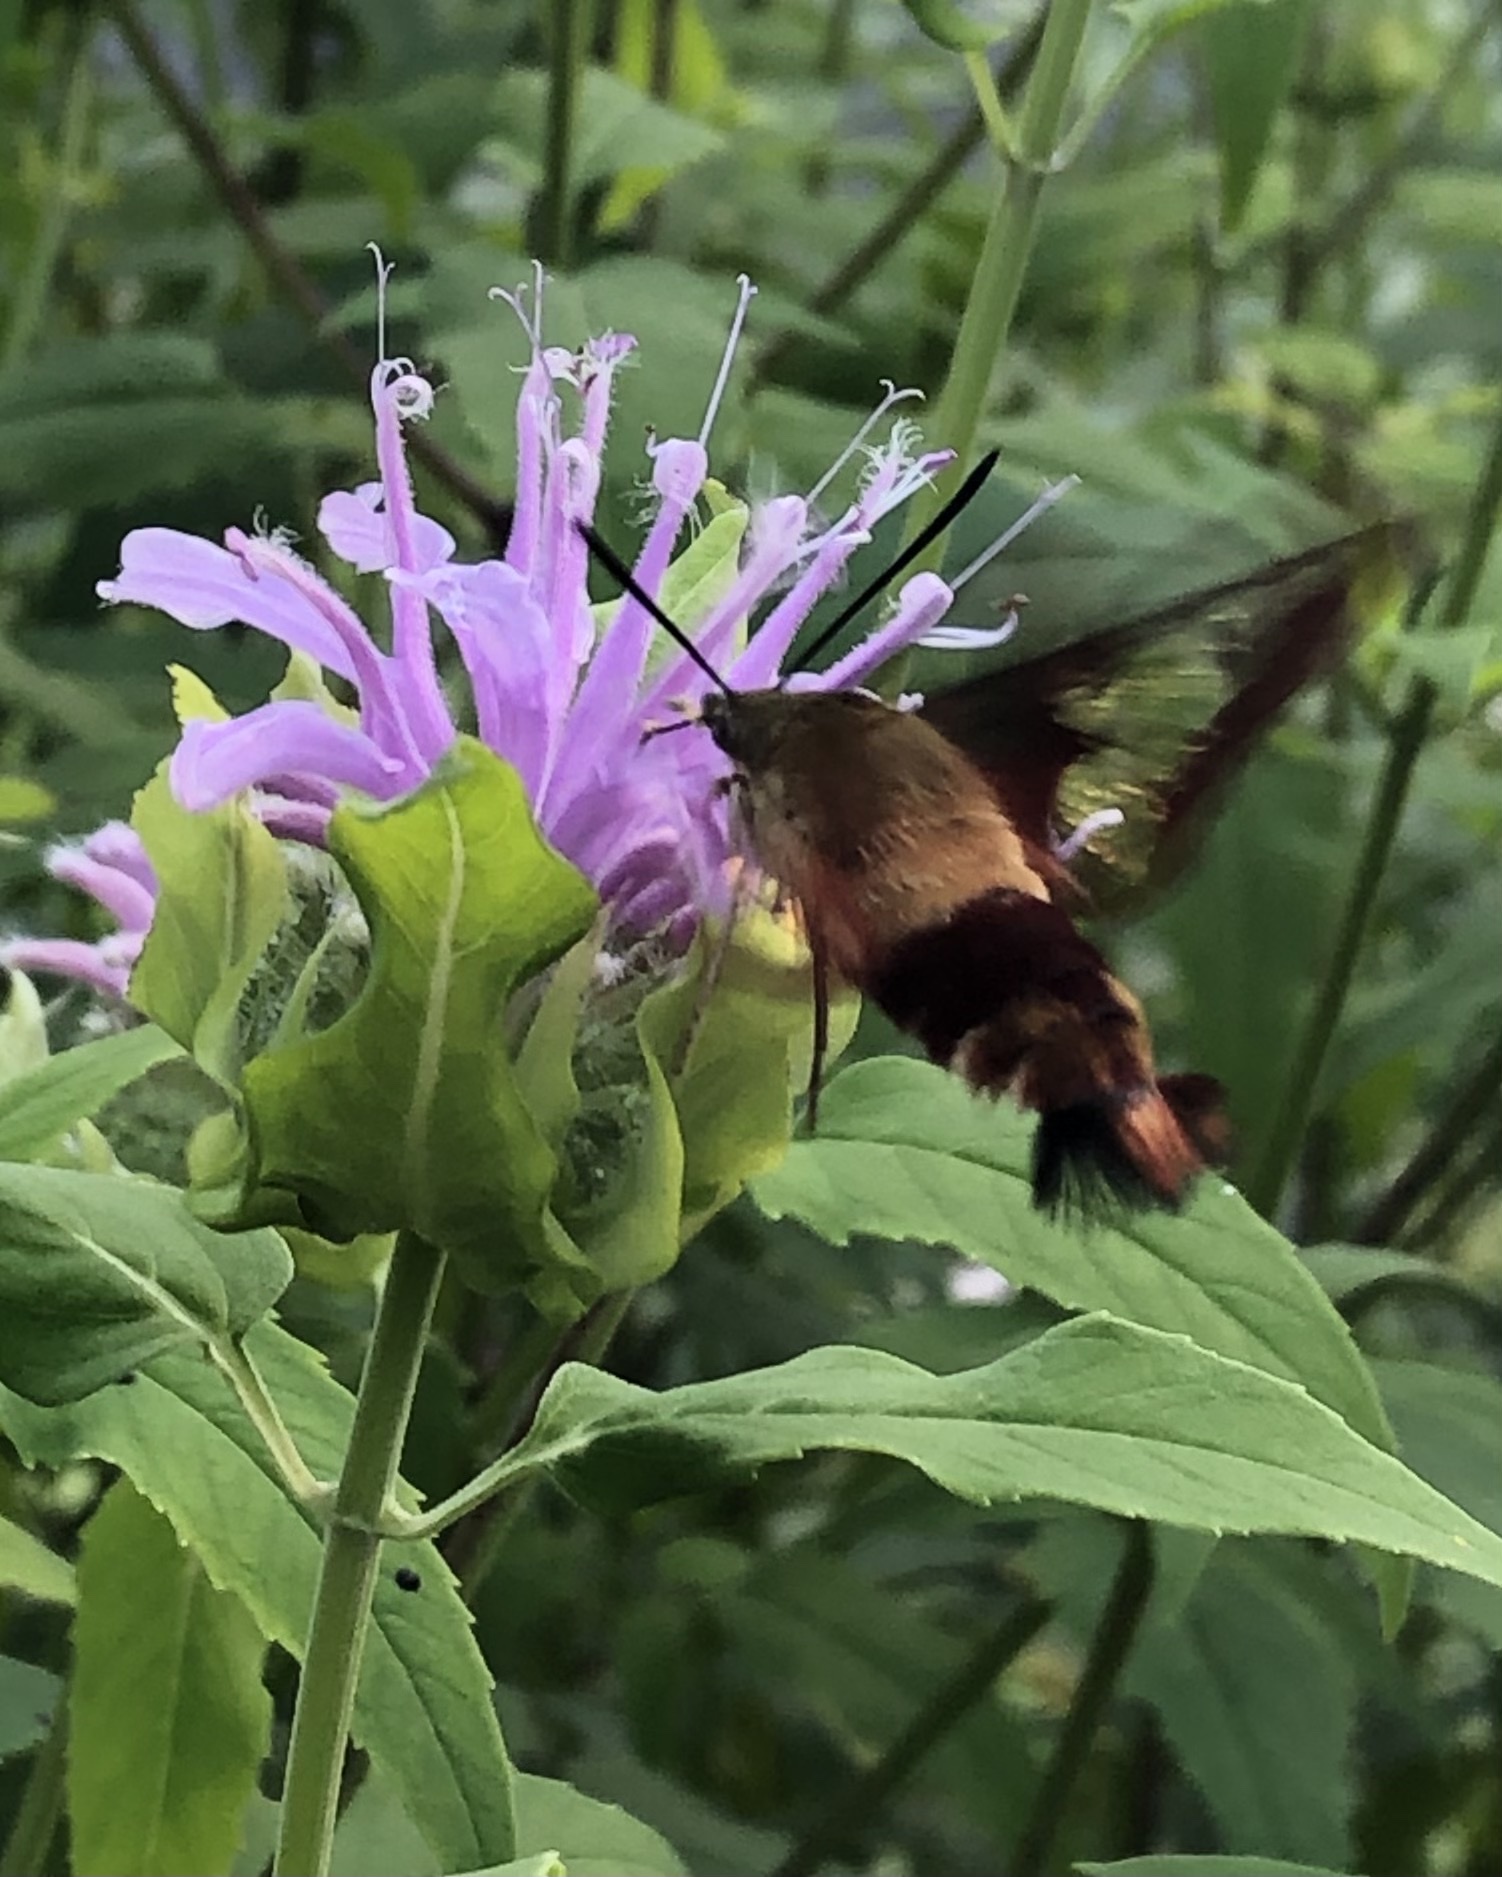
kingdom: Animalia
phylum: Arthropoda
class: Insecta
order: Lepidoptera
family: Sphingidae
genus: Hemaris
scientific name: Hemaris thysbe
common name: Common clear-wing
